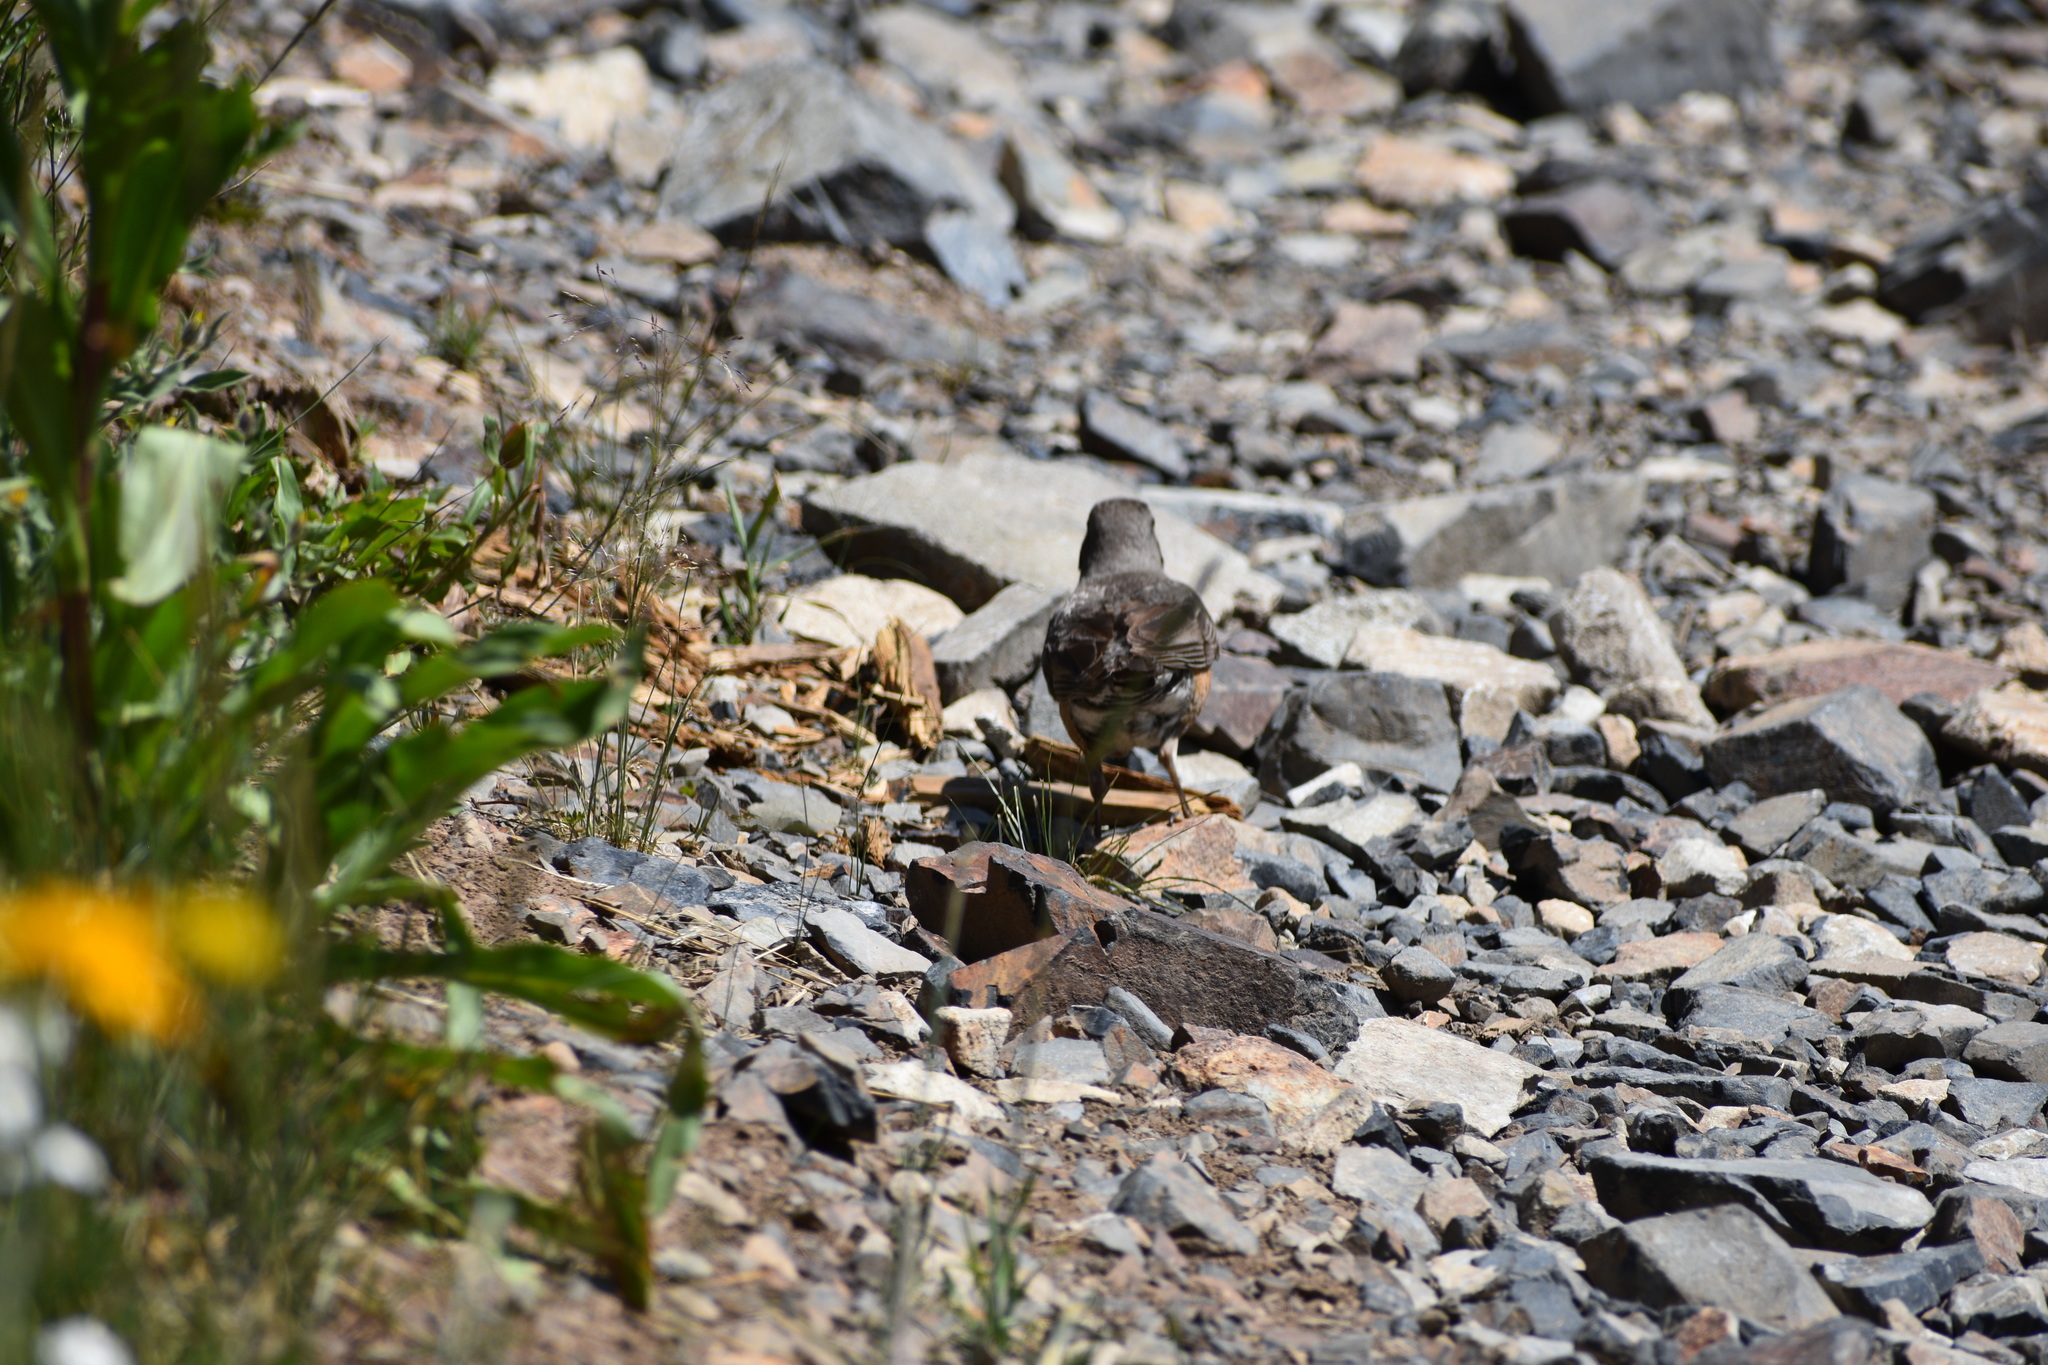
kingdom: Animalia
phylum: Chordata
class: Aves
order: Passeriformes
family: Turdidae
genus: Turdus
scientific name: Turdus migratorius
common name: American robin
